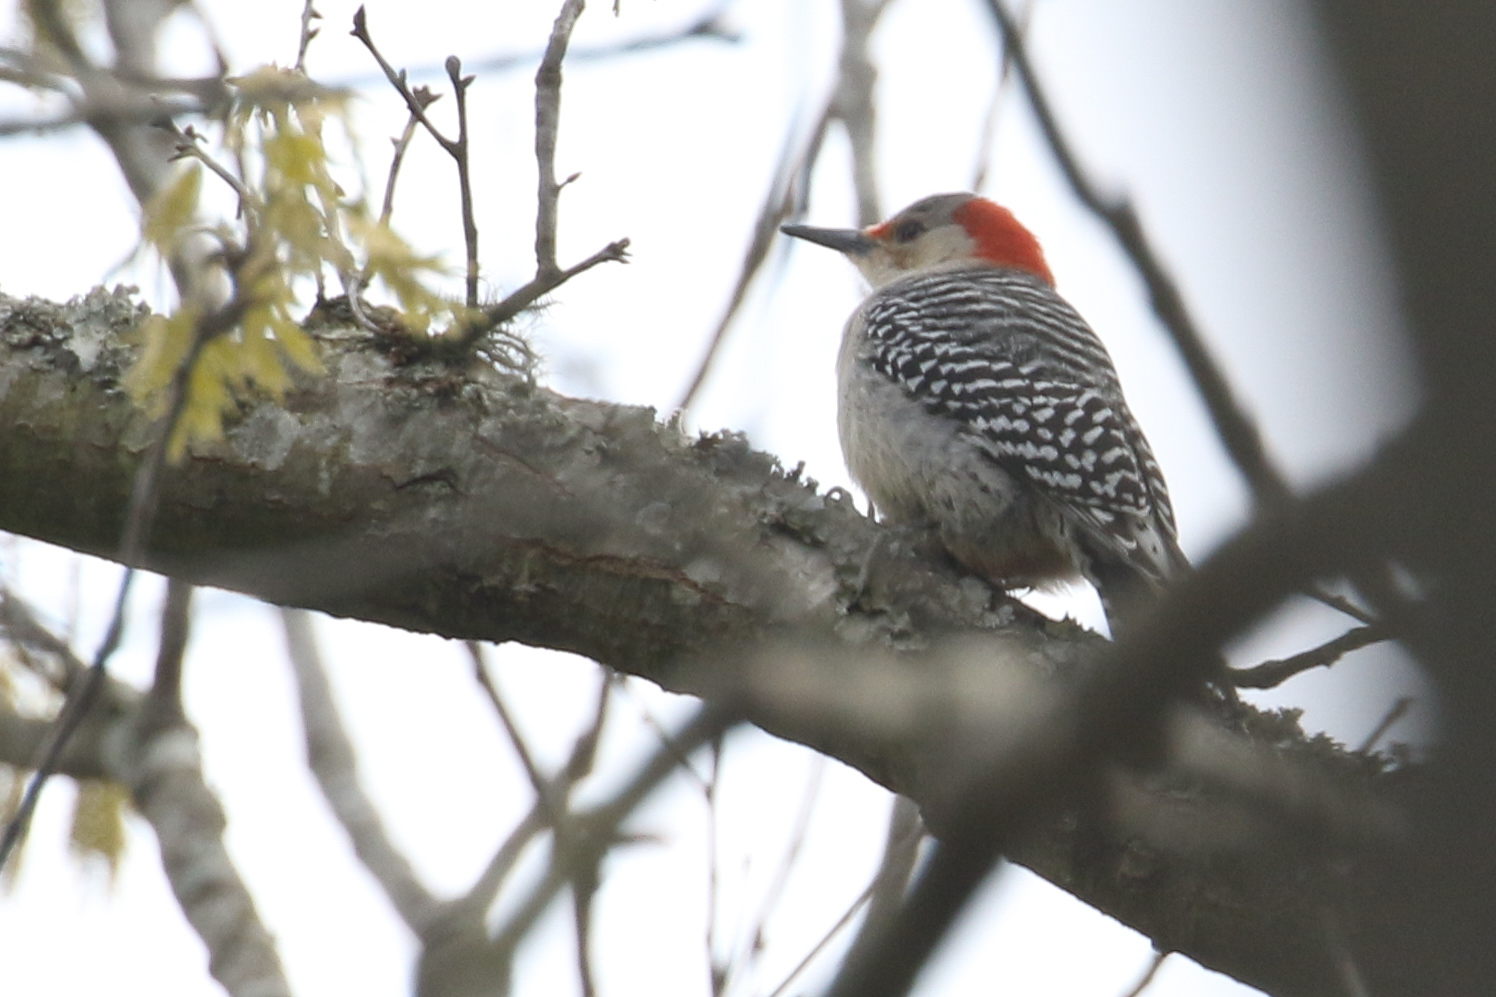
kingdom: Animalia
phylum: Chordata
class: Aves
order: Piciformes
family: Picidae
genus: Melanerpes
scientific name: Melanerpes carolinus
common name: Red-bellied woodpecker
